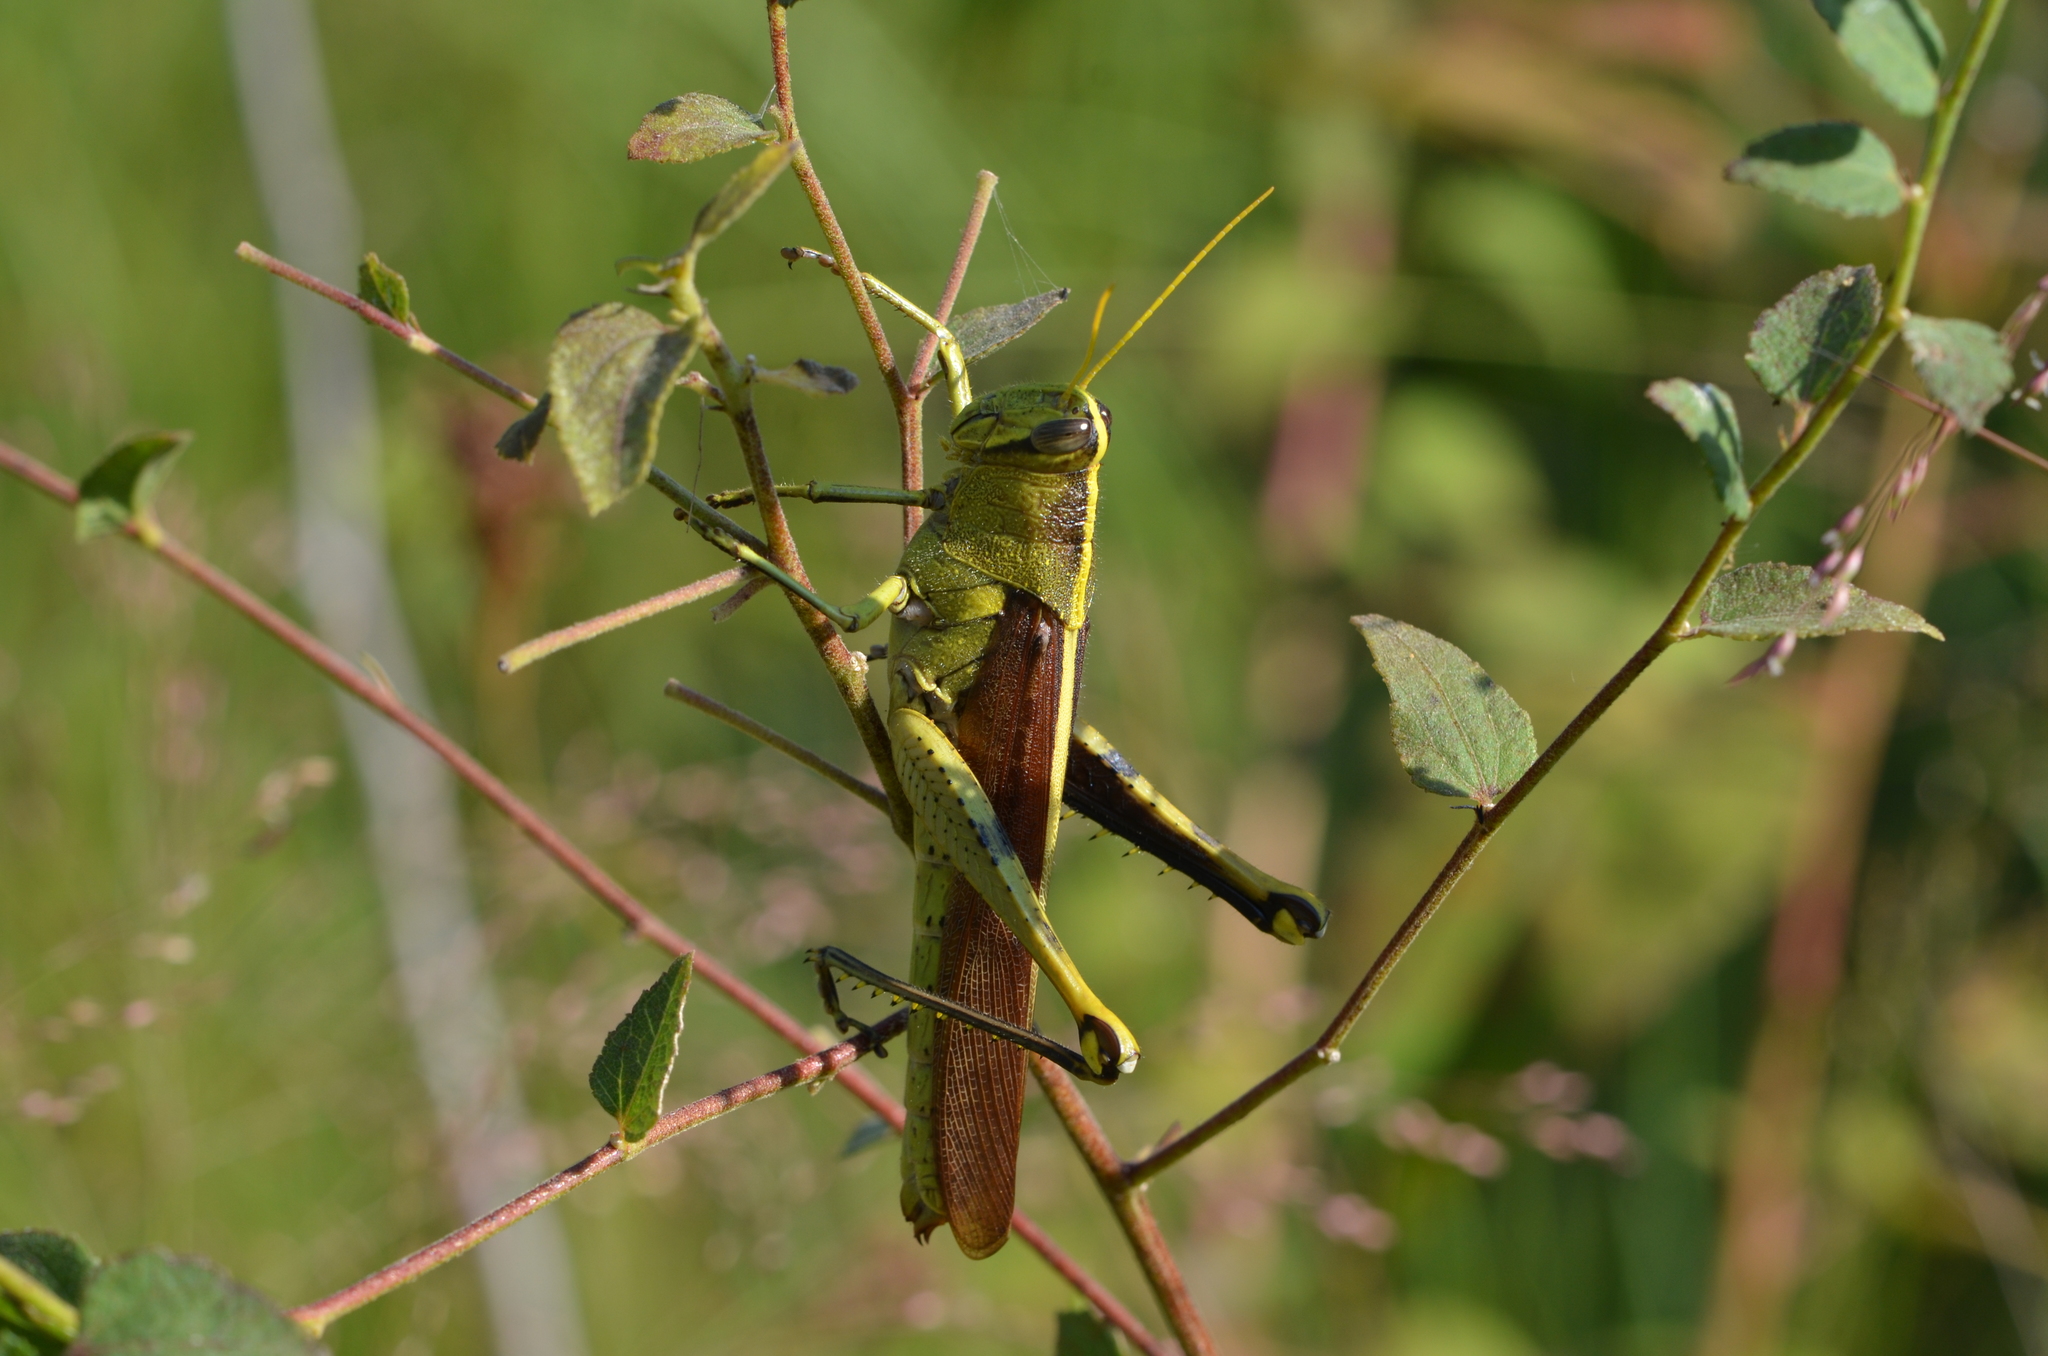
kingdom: Animalia
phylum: Arthropoda
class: Insecta
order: Orthoptera
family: Acrididae
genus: Schistocerca
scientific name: Schistocerca obscura
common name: Obscure bird grasshopper
